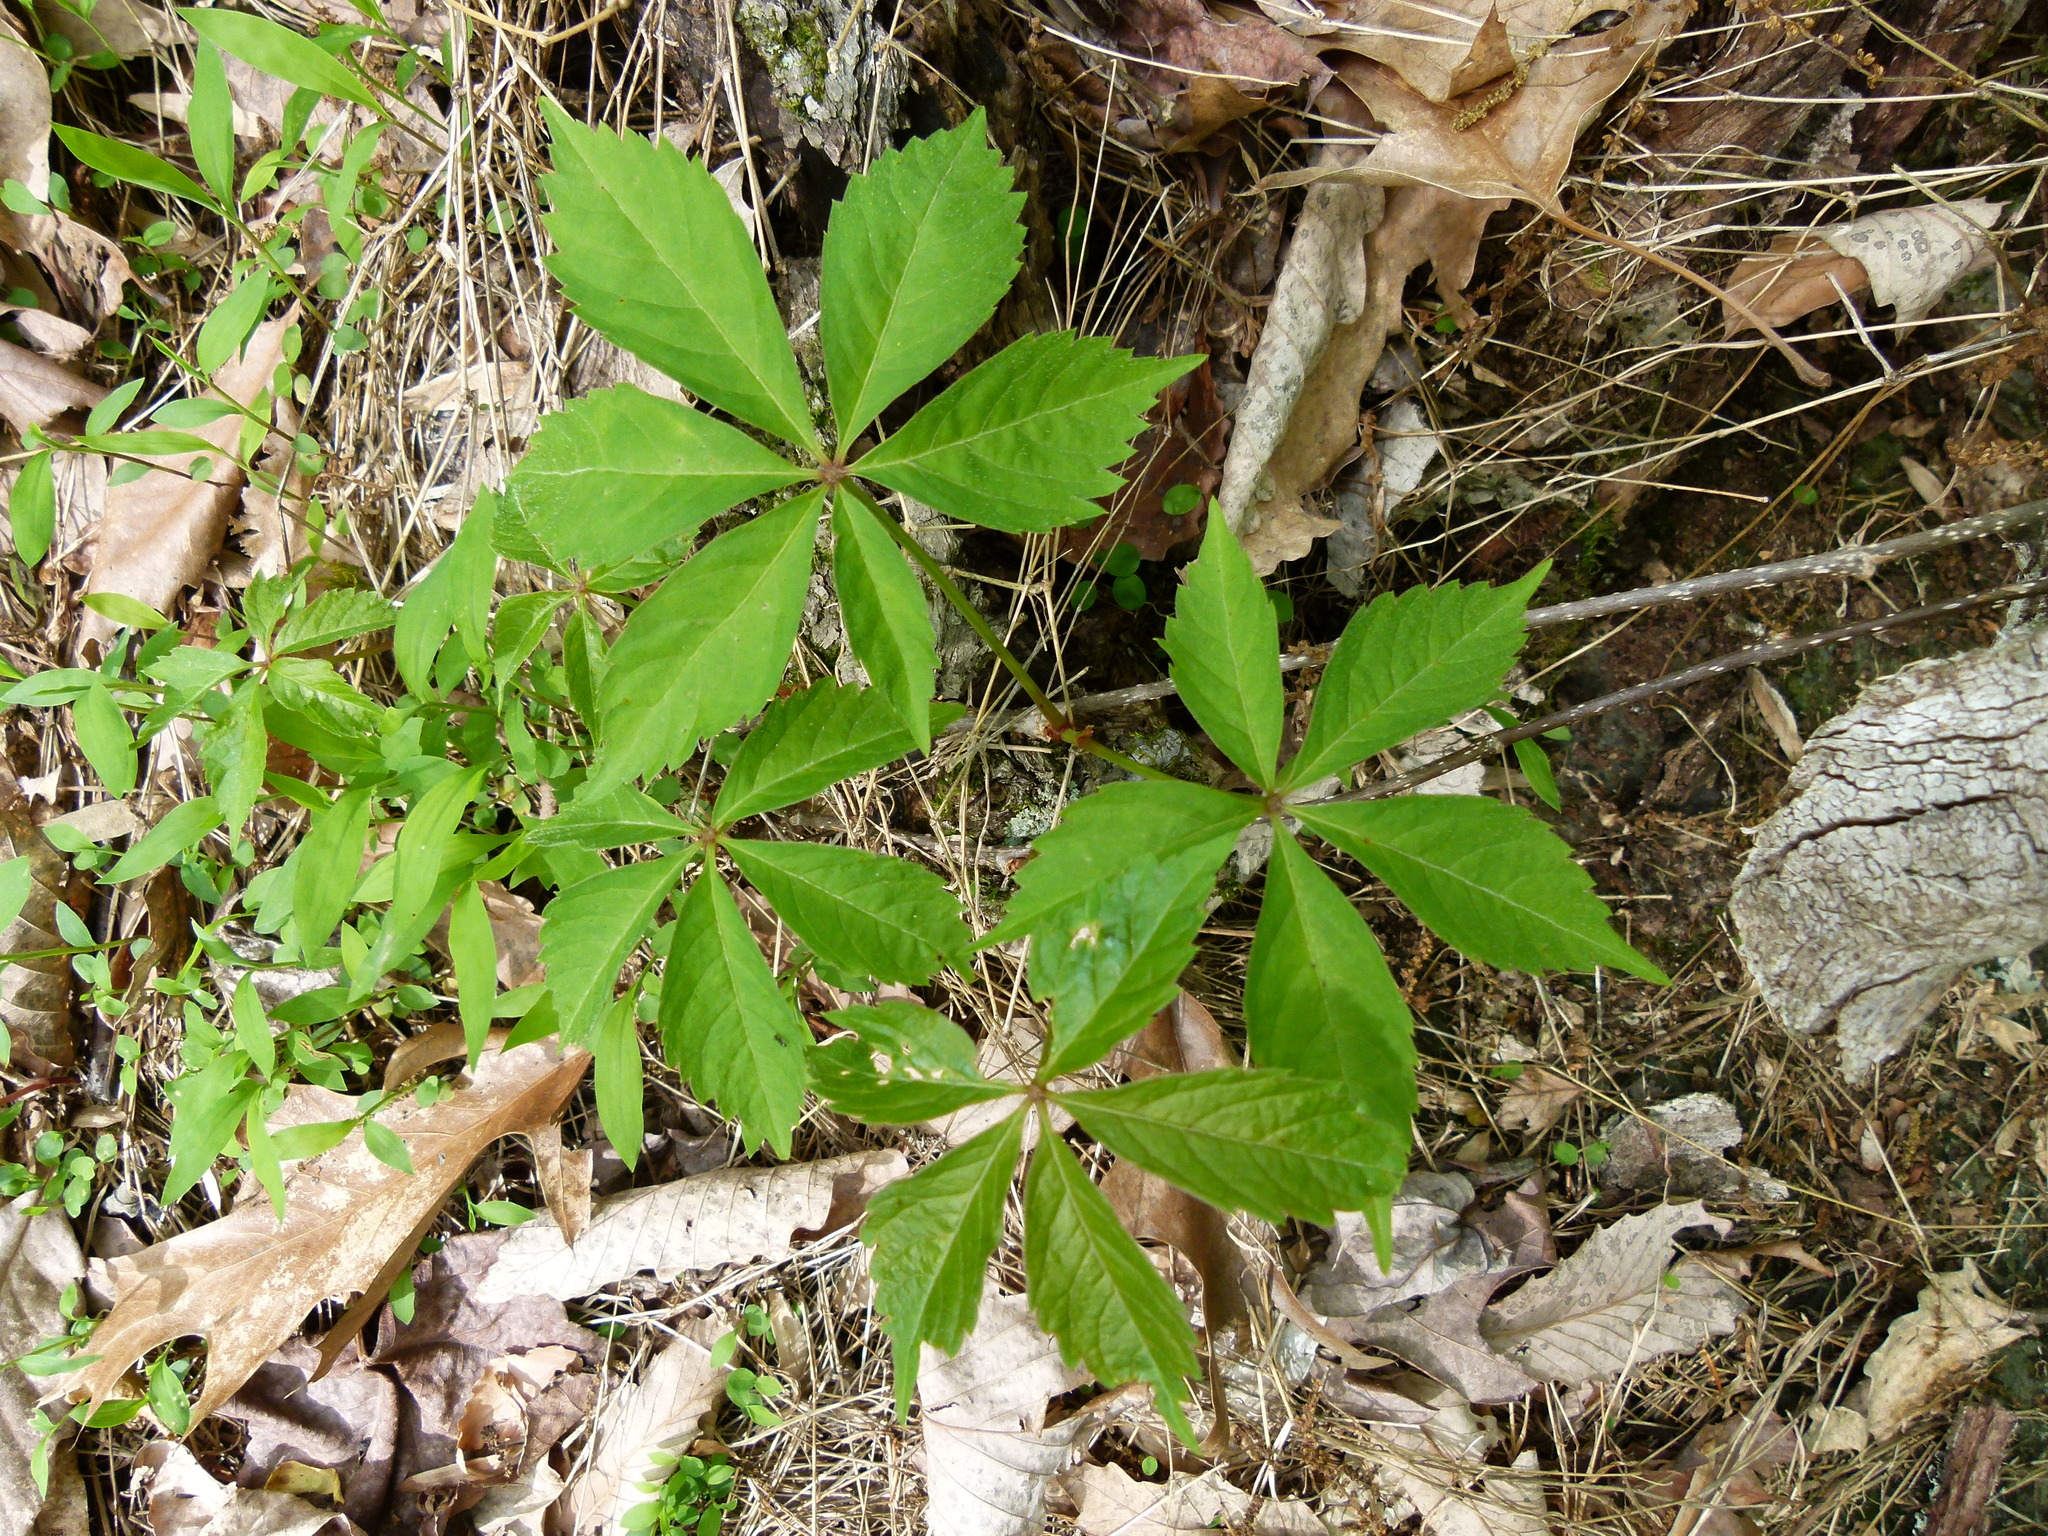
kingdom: Plantae
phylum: Tracheophyta
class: Magnoliopsida
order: Vitales
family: Vitaceae
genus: Parthenocissus
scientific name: Parthenocissus quinquefolia
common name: Virginia-creeper
